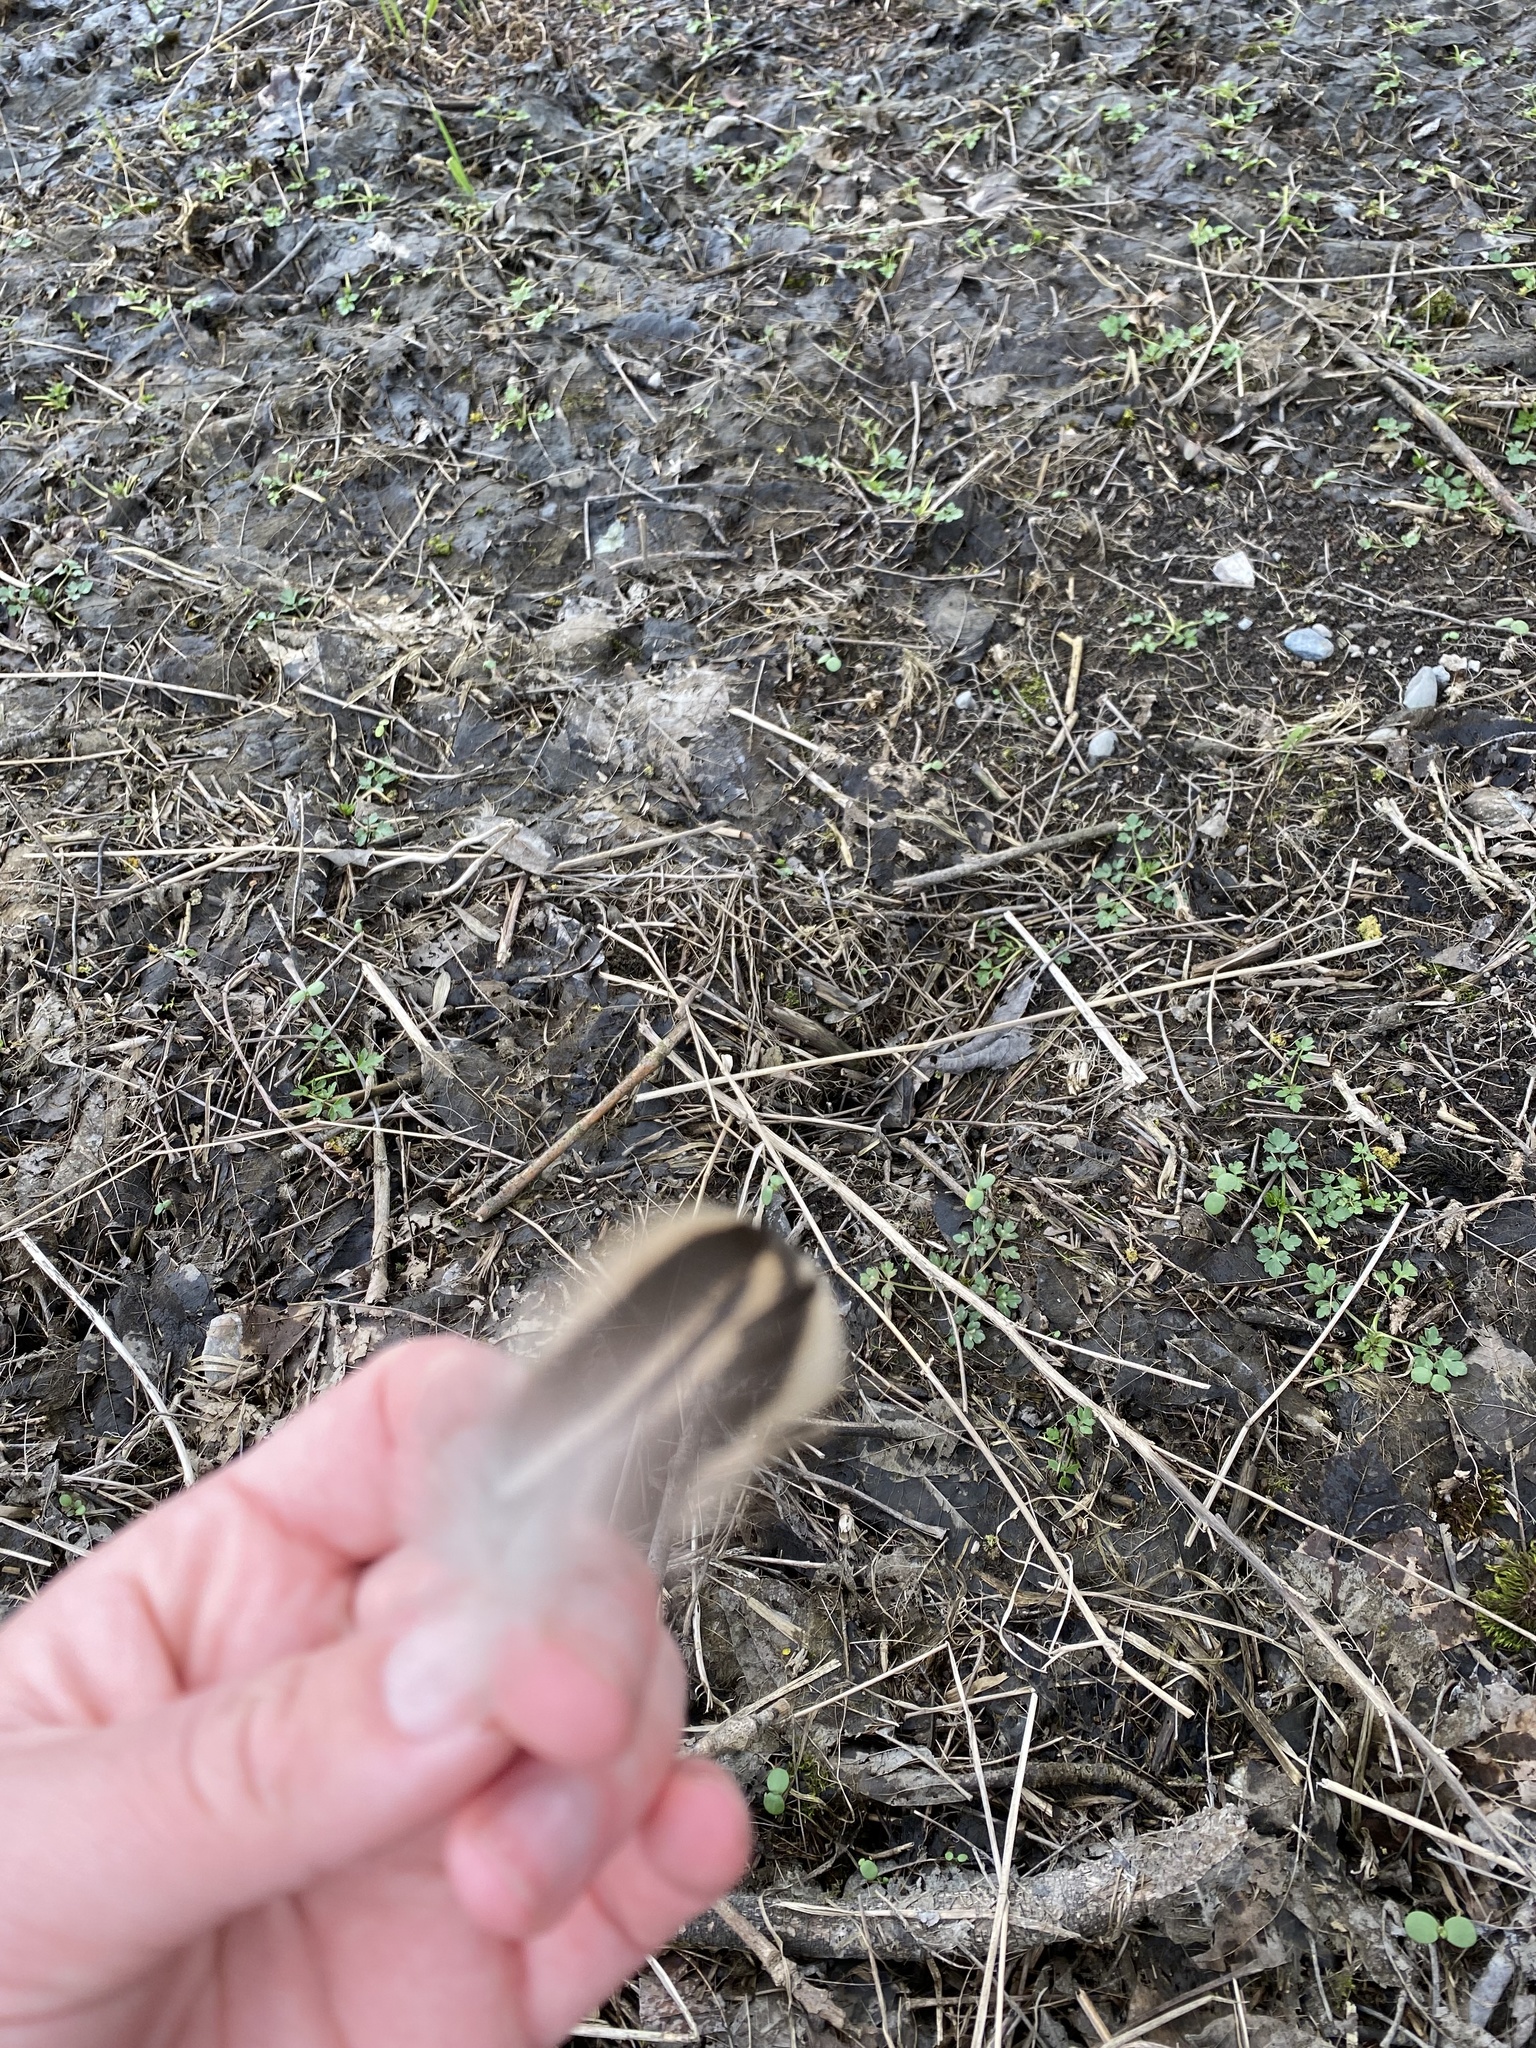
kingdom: Animalia
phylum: Chordata
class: Aves
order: Anseriformes
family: Anatidae
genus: Anas
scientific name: Anas platyrhynchos
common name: Mallard
